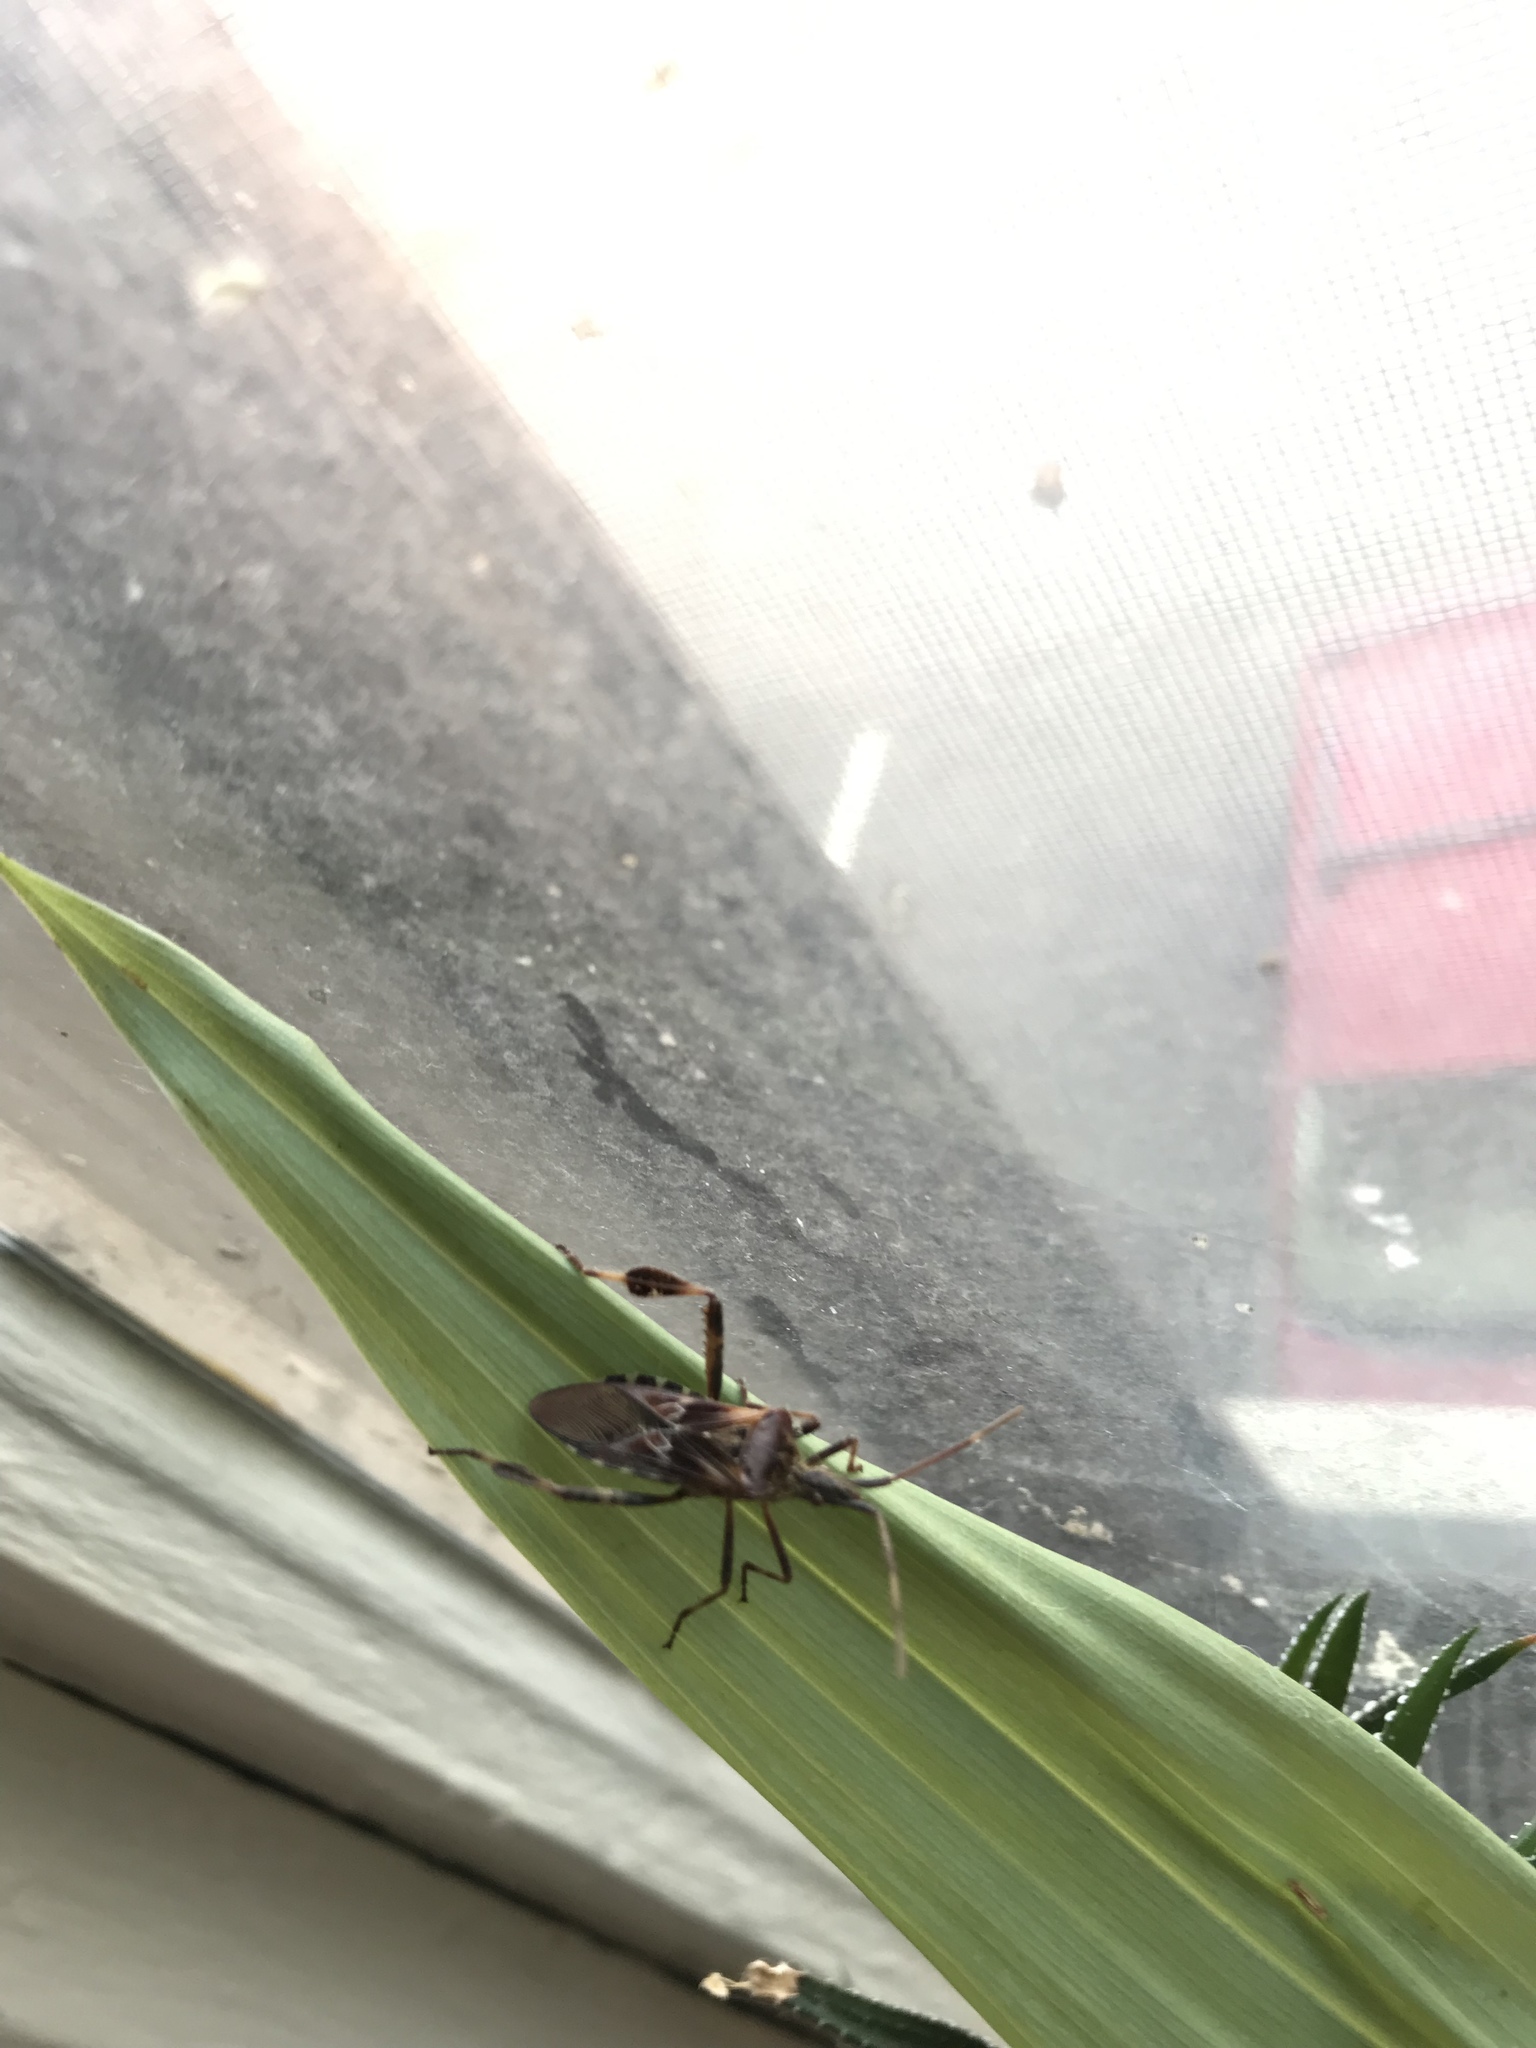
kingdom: Animalia
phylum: Arthropoda
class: Insecta
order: Hemiptera
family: Coreidae
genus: Leptoglossus
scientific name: Leptoglossus occidentalis
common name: Western conifer-seed bug
